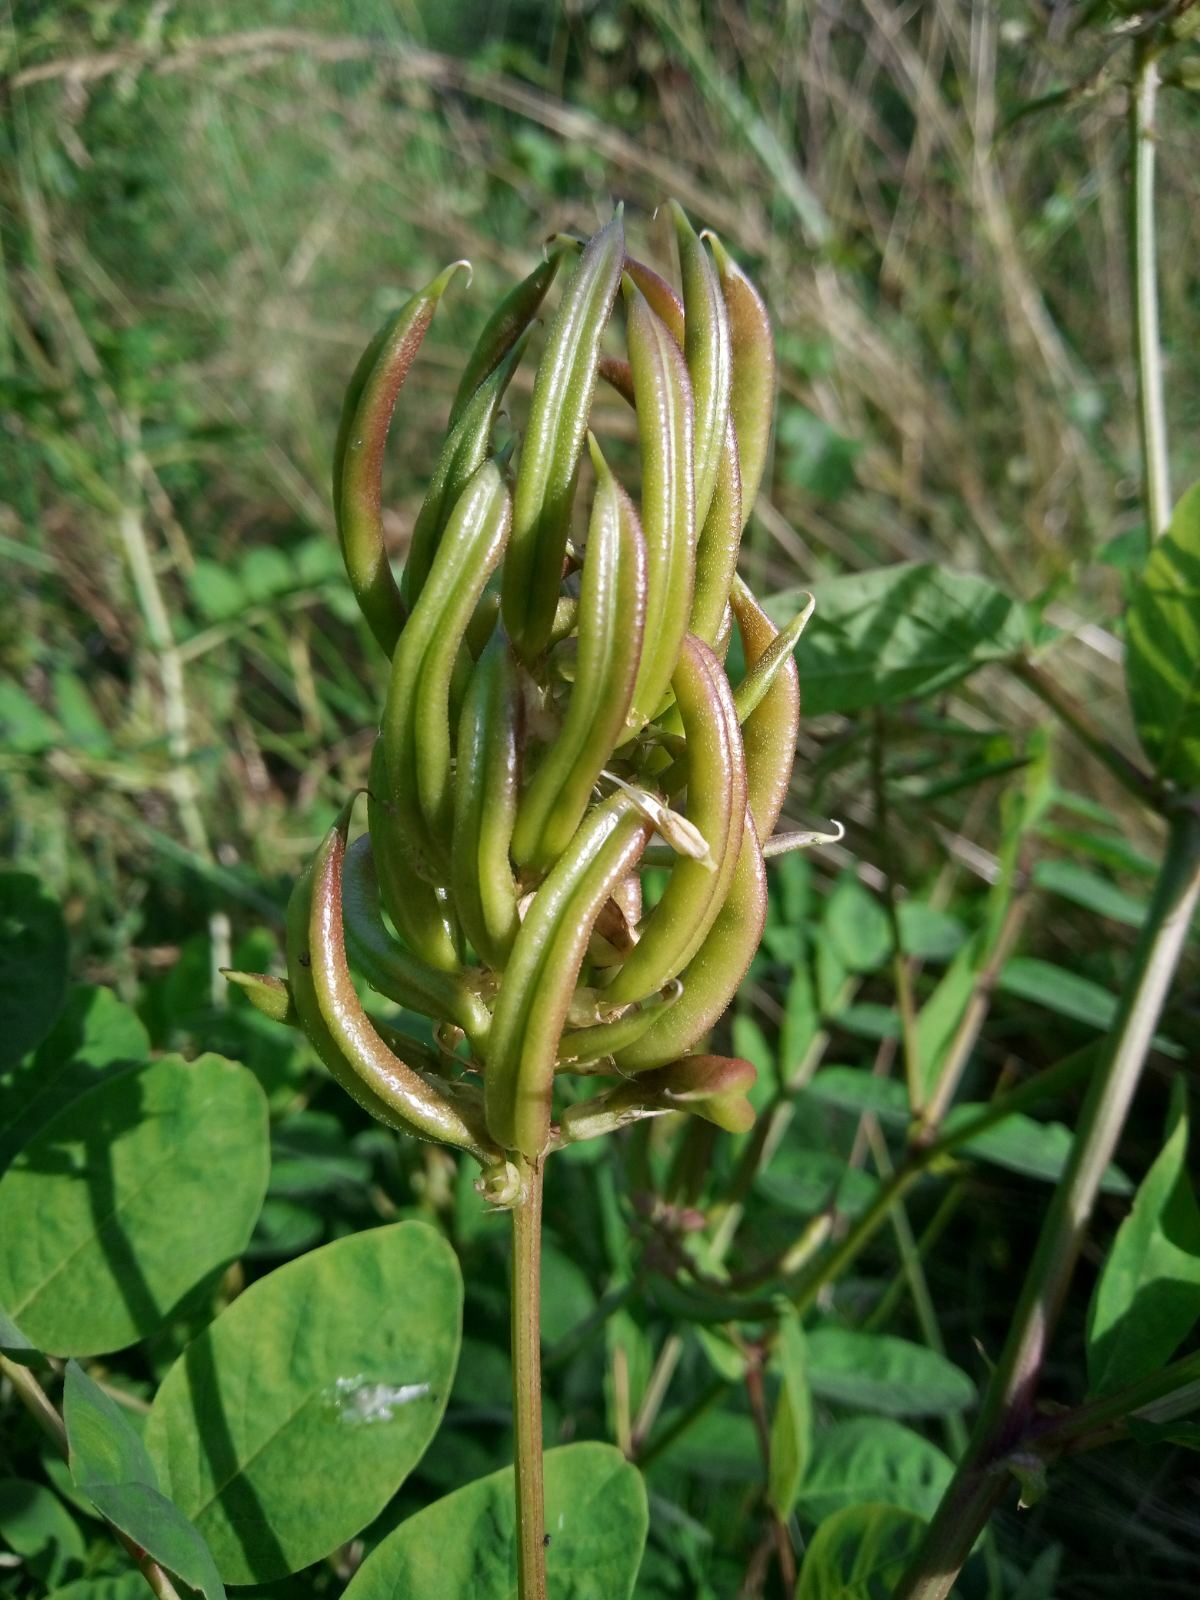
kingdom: Plantae
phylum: Tracheophyta
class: Magnoliopsida
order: Fabales
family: Fabaceae
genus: Astragalus
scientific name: Astragalus glycyphyllos
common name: Wild liquorice
